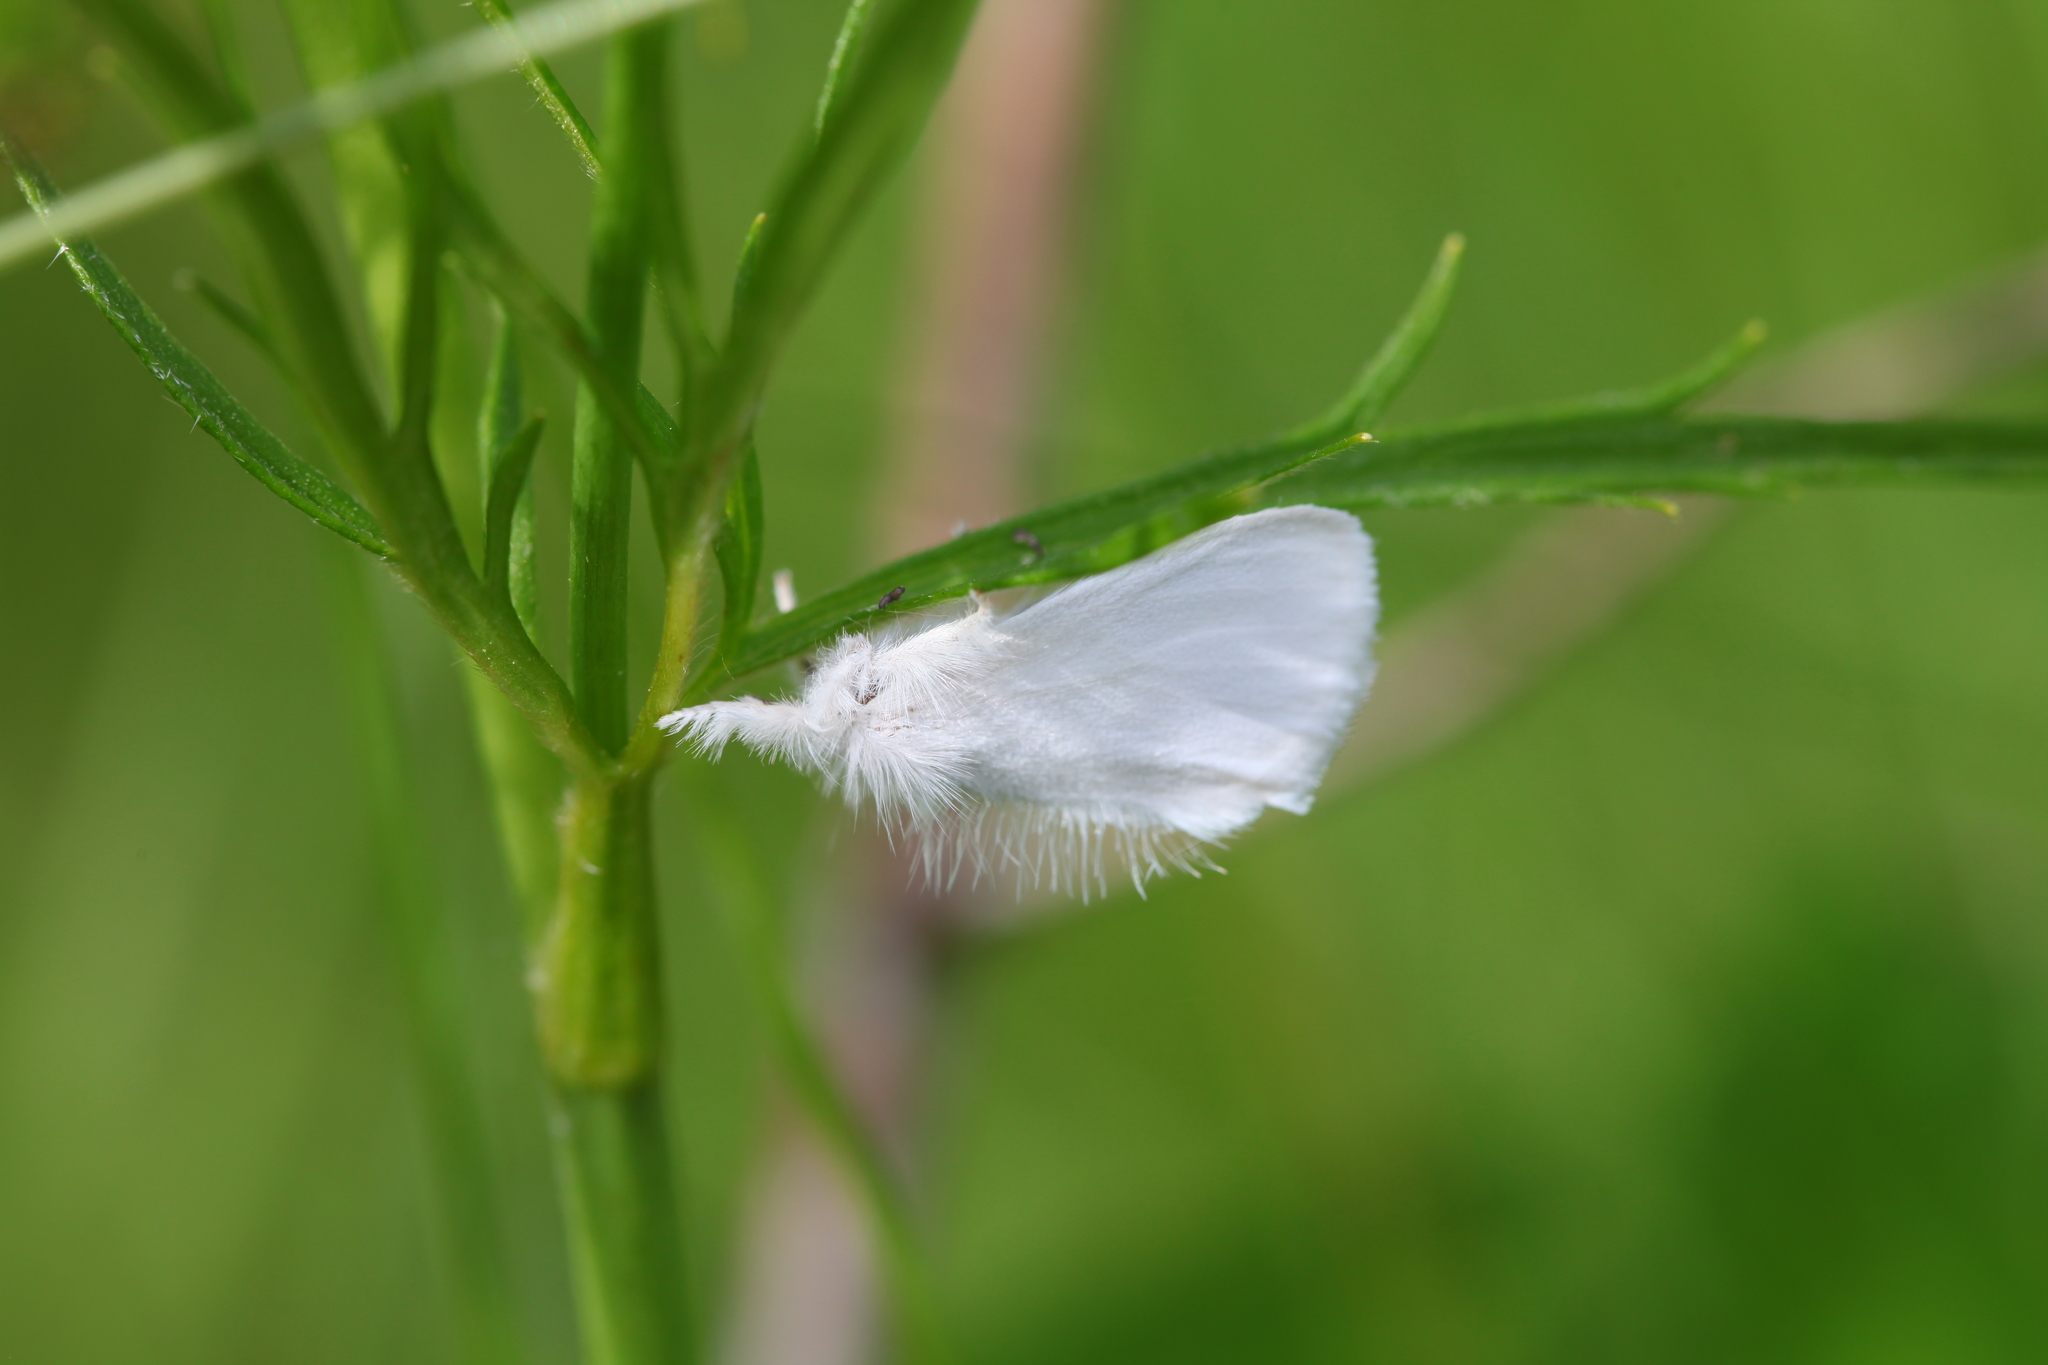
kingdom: Animalia
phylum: Arthropoda
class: Insecta
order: Lepidoptera
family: Erebidae
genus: Sphrageidus
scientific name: Sphrageidus similis
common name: Yellow-tail
